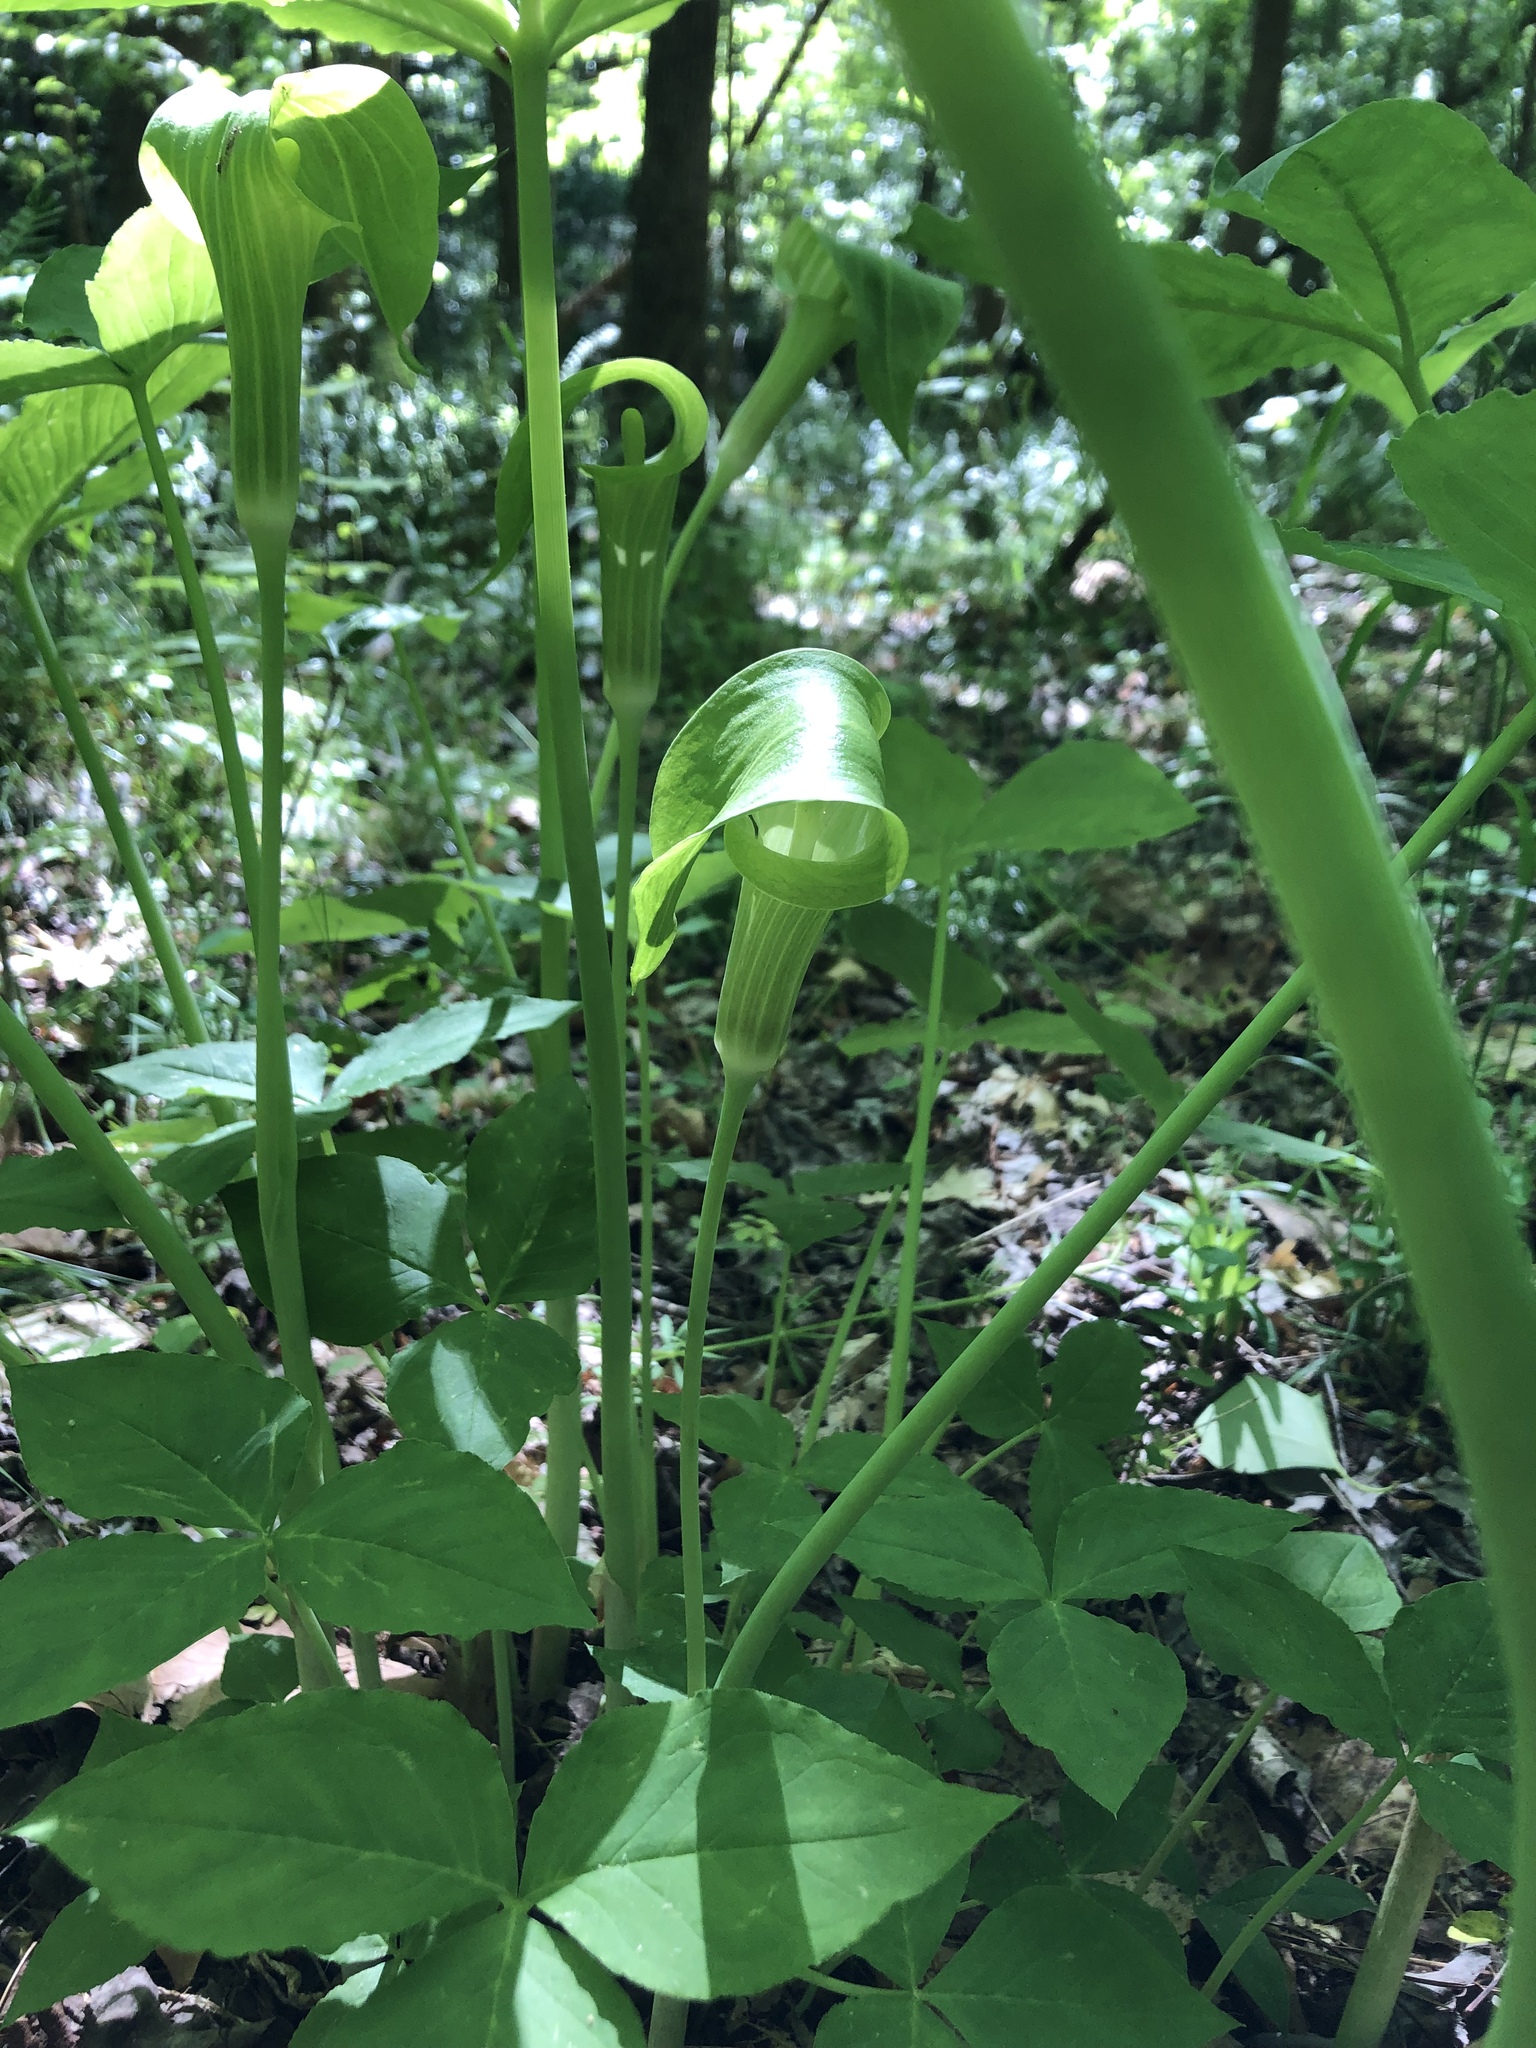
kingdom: Plantae
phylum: Tracheophyta
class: Liliopsida
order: Alismatales
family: Araceae
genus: Arisaema
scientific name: Arisaema triphyllum
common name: Jack-in-the-pulpit
